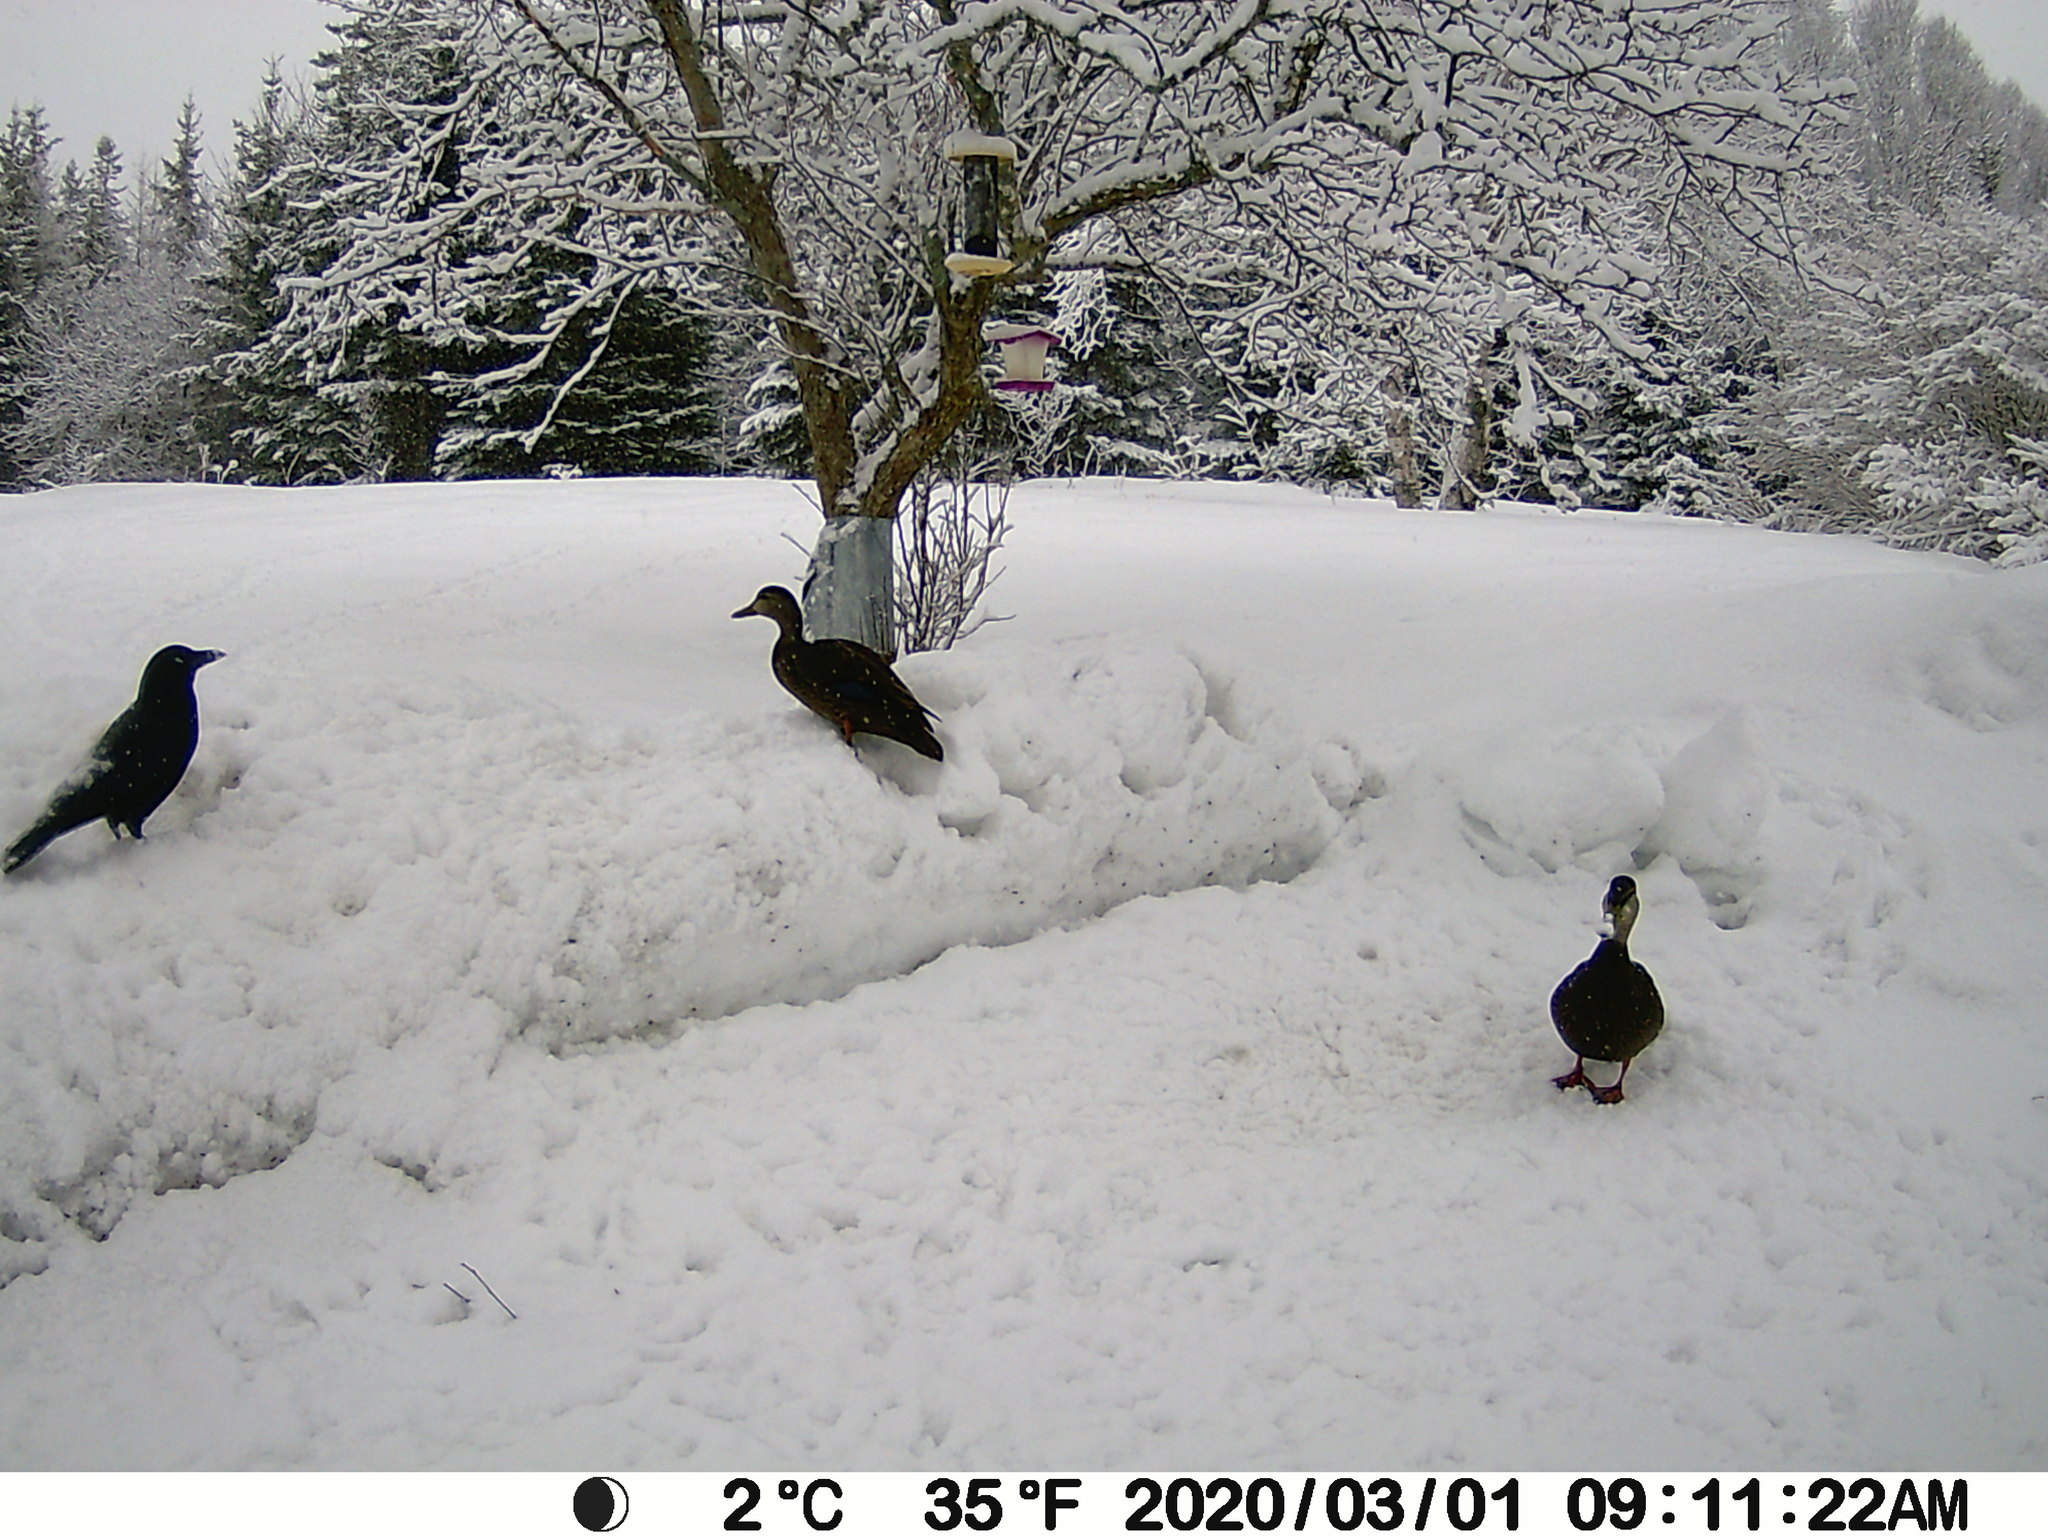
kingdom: Animalia
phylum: Chordata
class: Aves
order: Anseriformes
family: Anatidae
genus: Anas
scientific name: Anas rubripes
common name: American black duck
